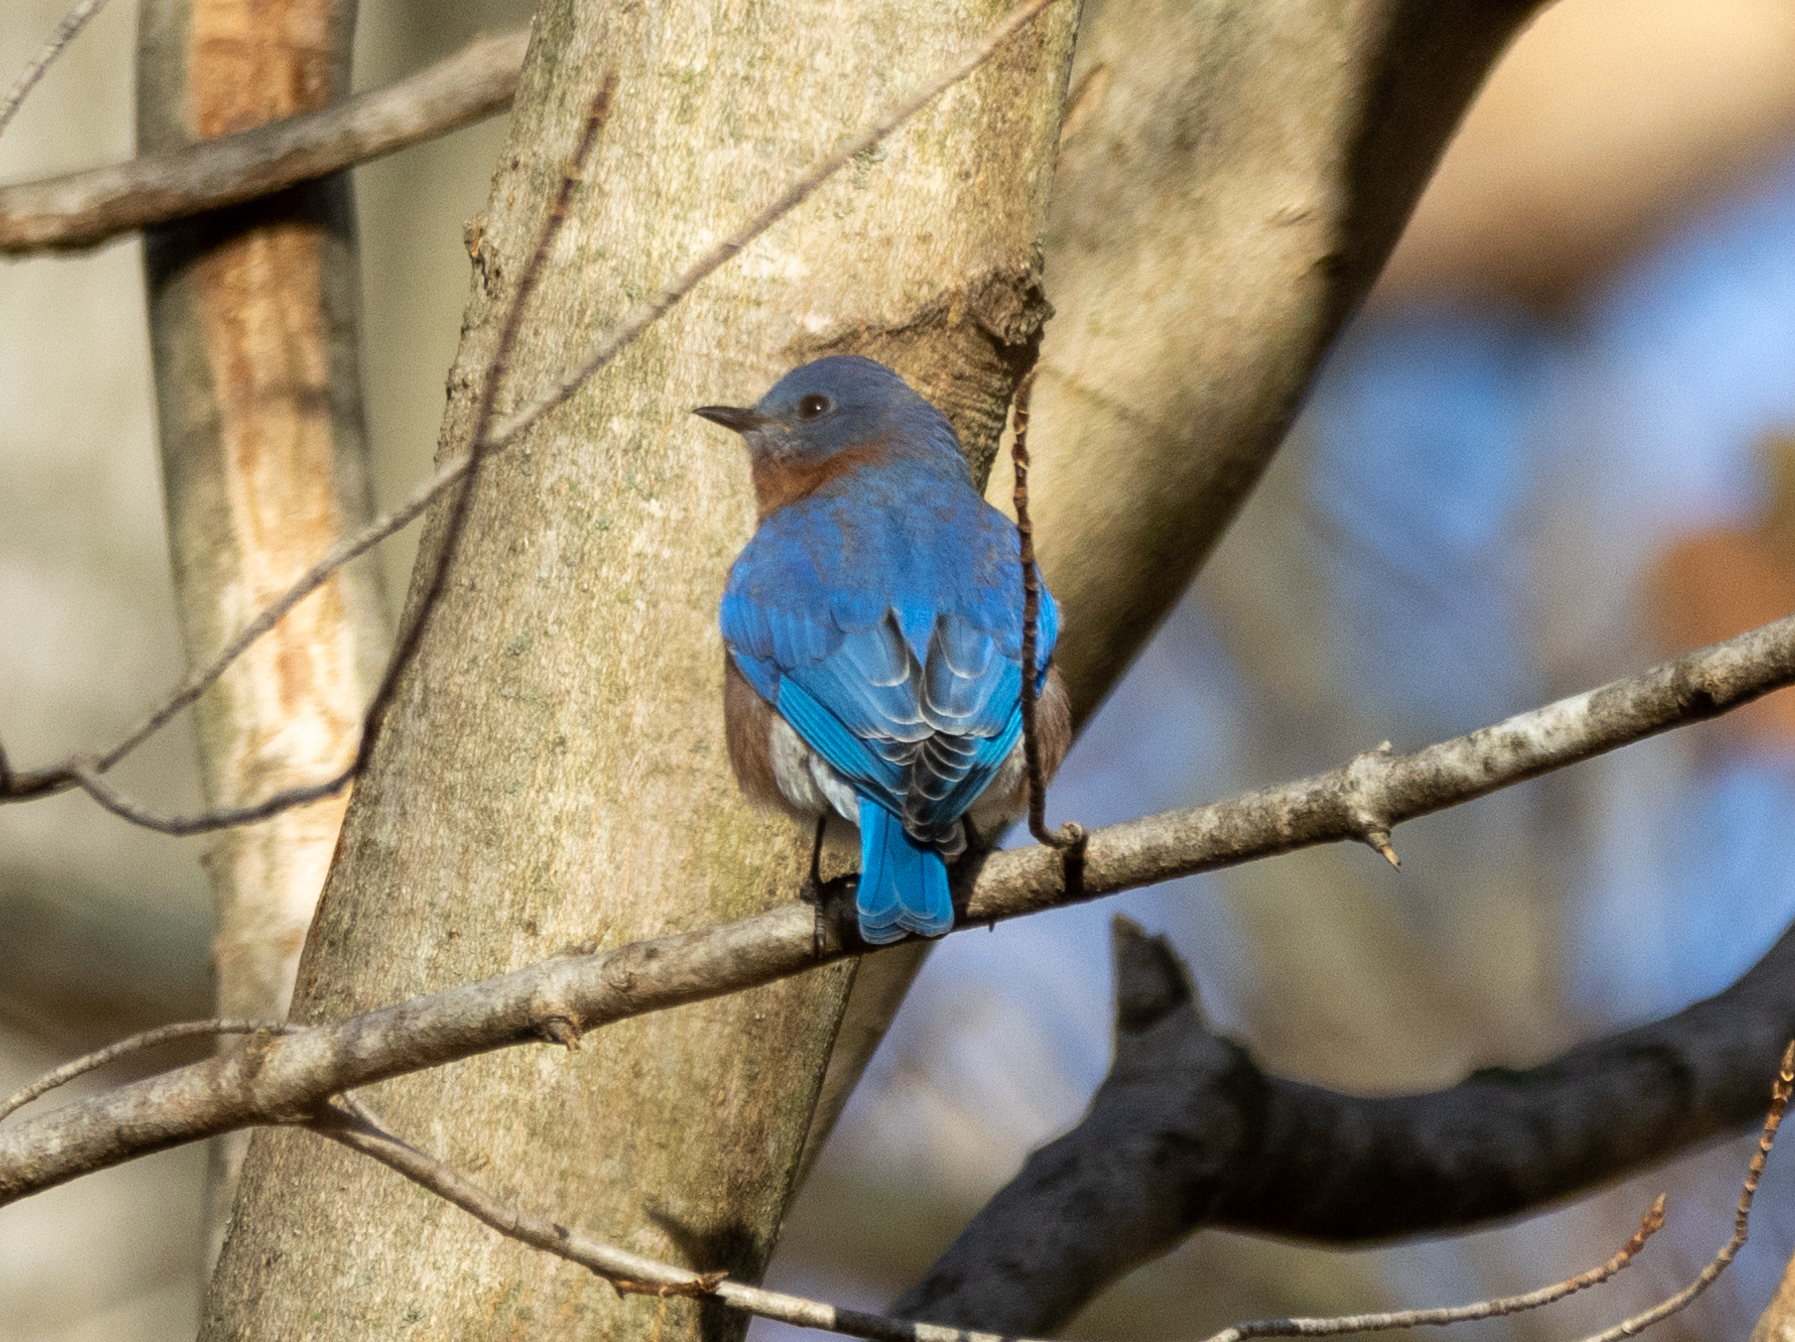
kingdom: Animalia
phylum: Chordata
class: Aves
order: Passeriformes
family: Turdidae
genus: Sialia
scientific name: Sialia sialis
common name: Eastern bluebird
